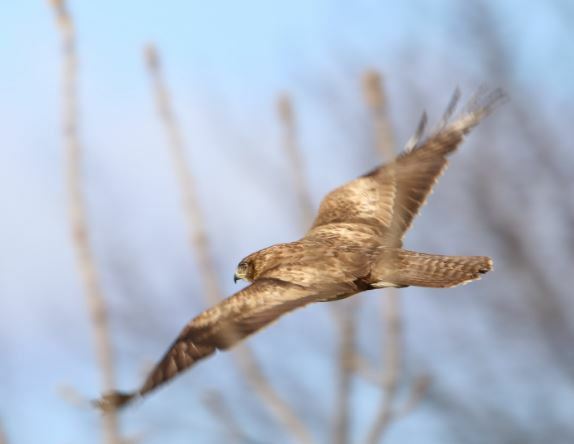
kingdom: Animalia
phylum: Chordata
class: Aves
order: Accipitriformes
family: Accipitridae
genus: Buteo
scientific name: Buteo buteo
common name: Common buzzard
